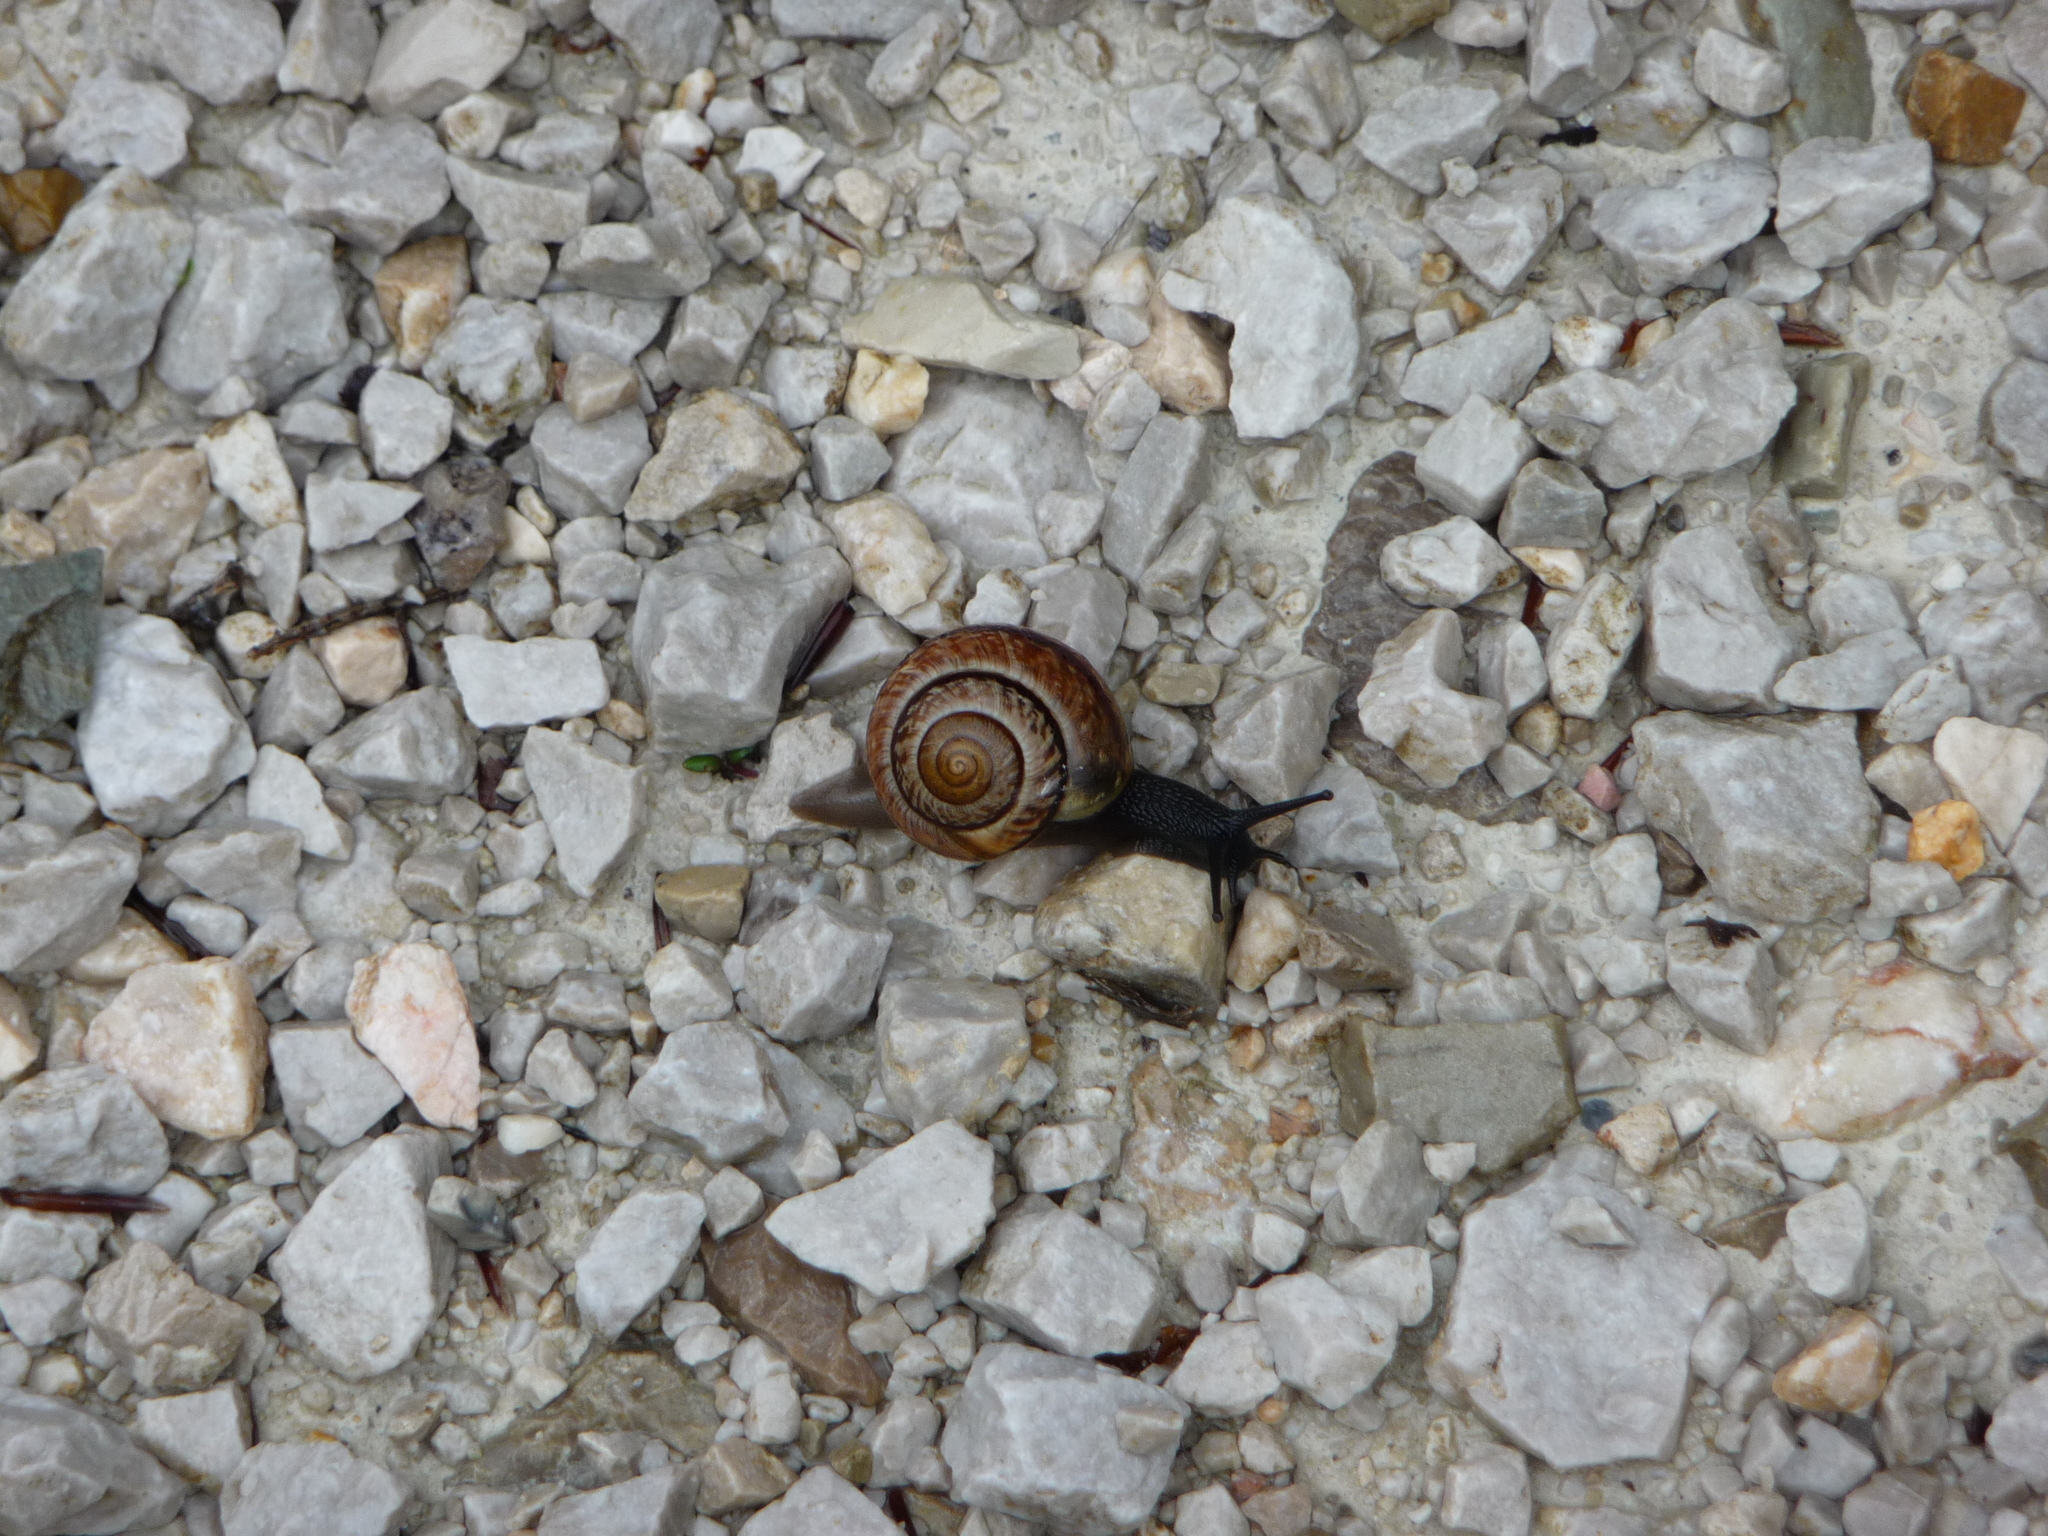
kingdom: Animalia
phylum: Mollusca
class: Gastropoda
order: Stylommatophora
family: Helicidae
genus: Arianta
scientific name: Arianta arbustorum
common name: Copse snail
